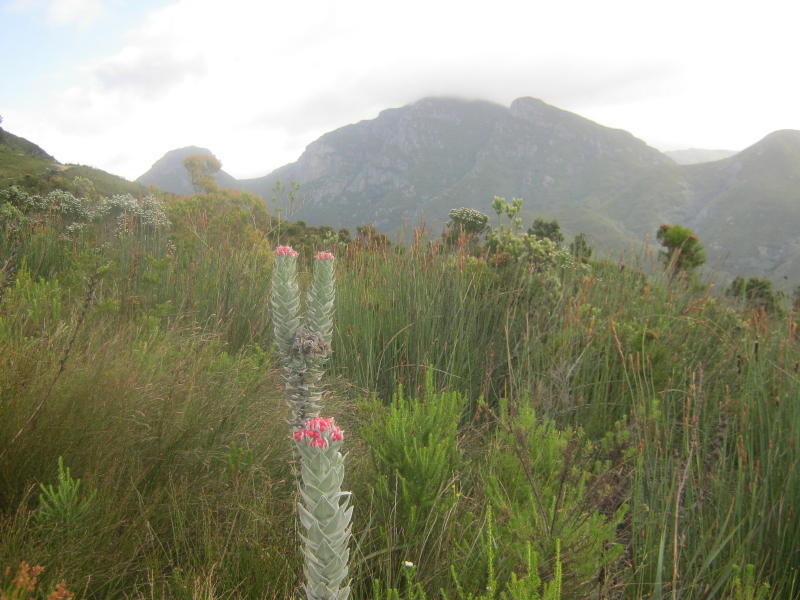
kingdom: Plantae
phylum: Tracheophyta
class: Magnoliopsida
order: Asterales
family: Asteraceae
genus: Syncarpha
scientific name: Syncarpha eximia
